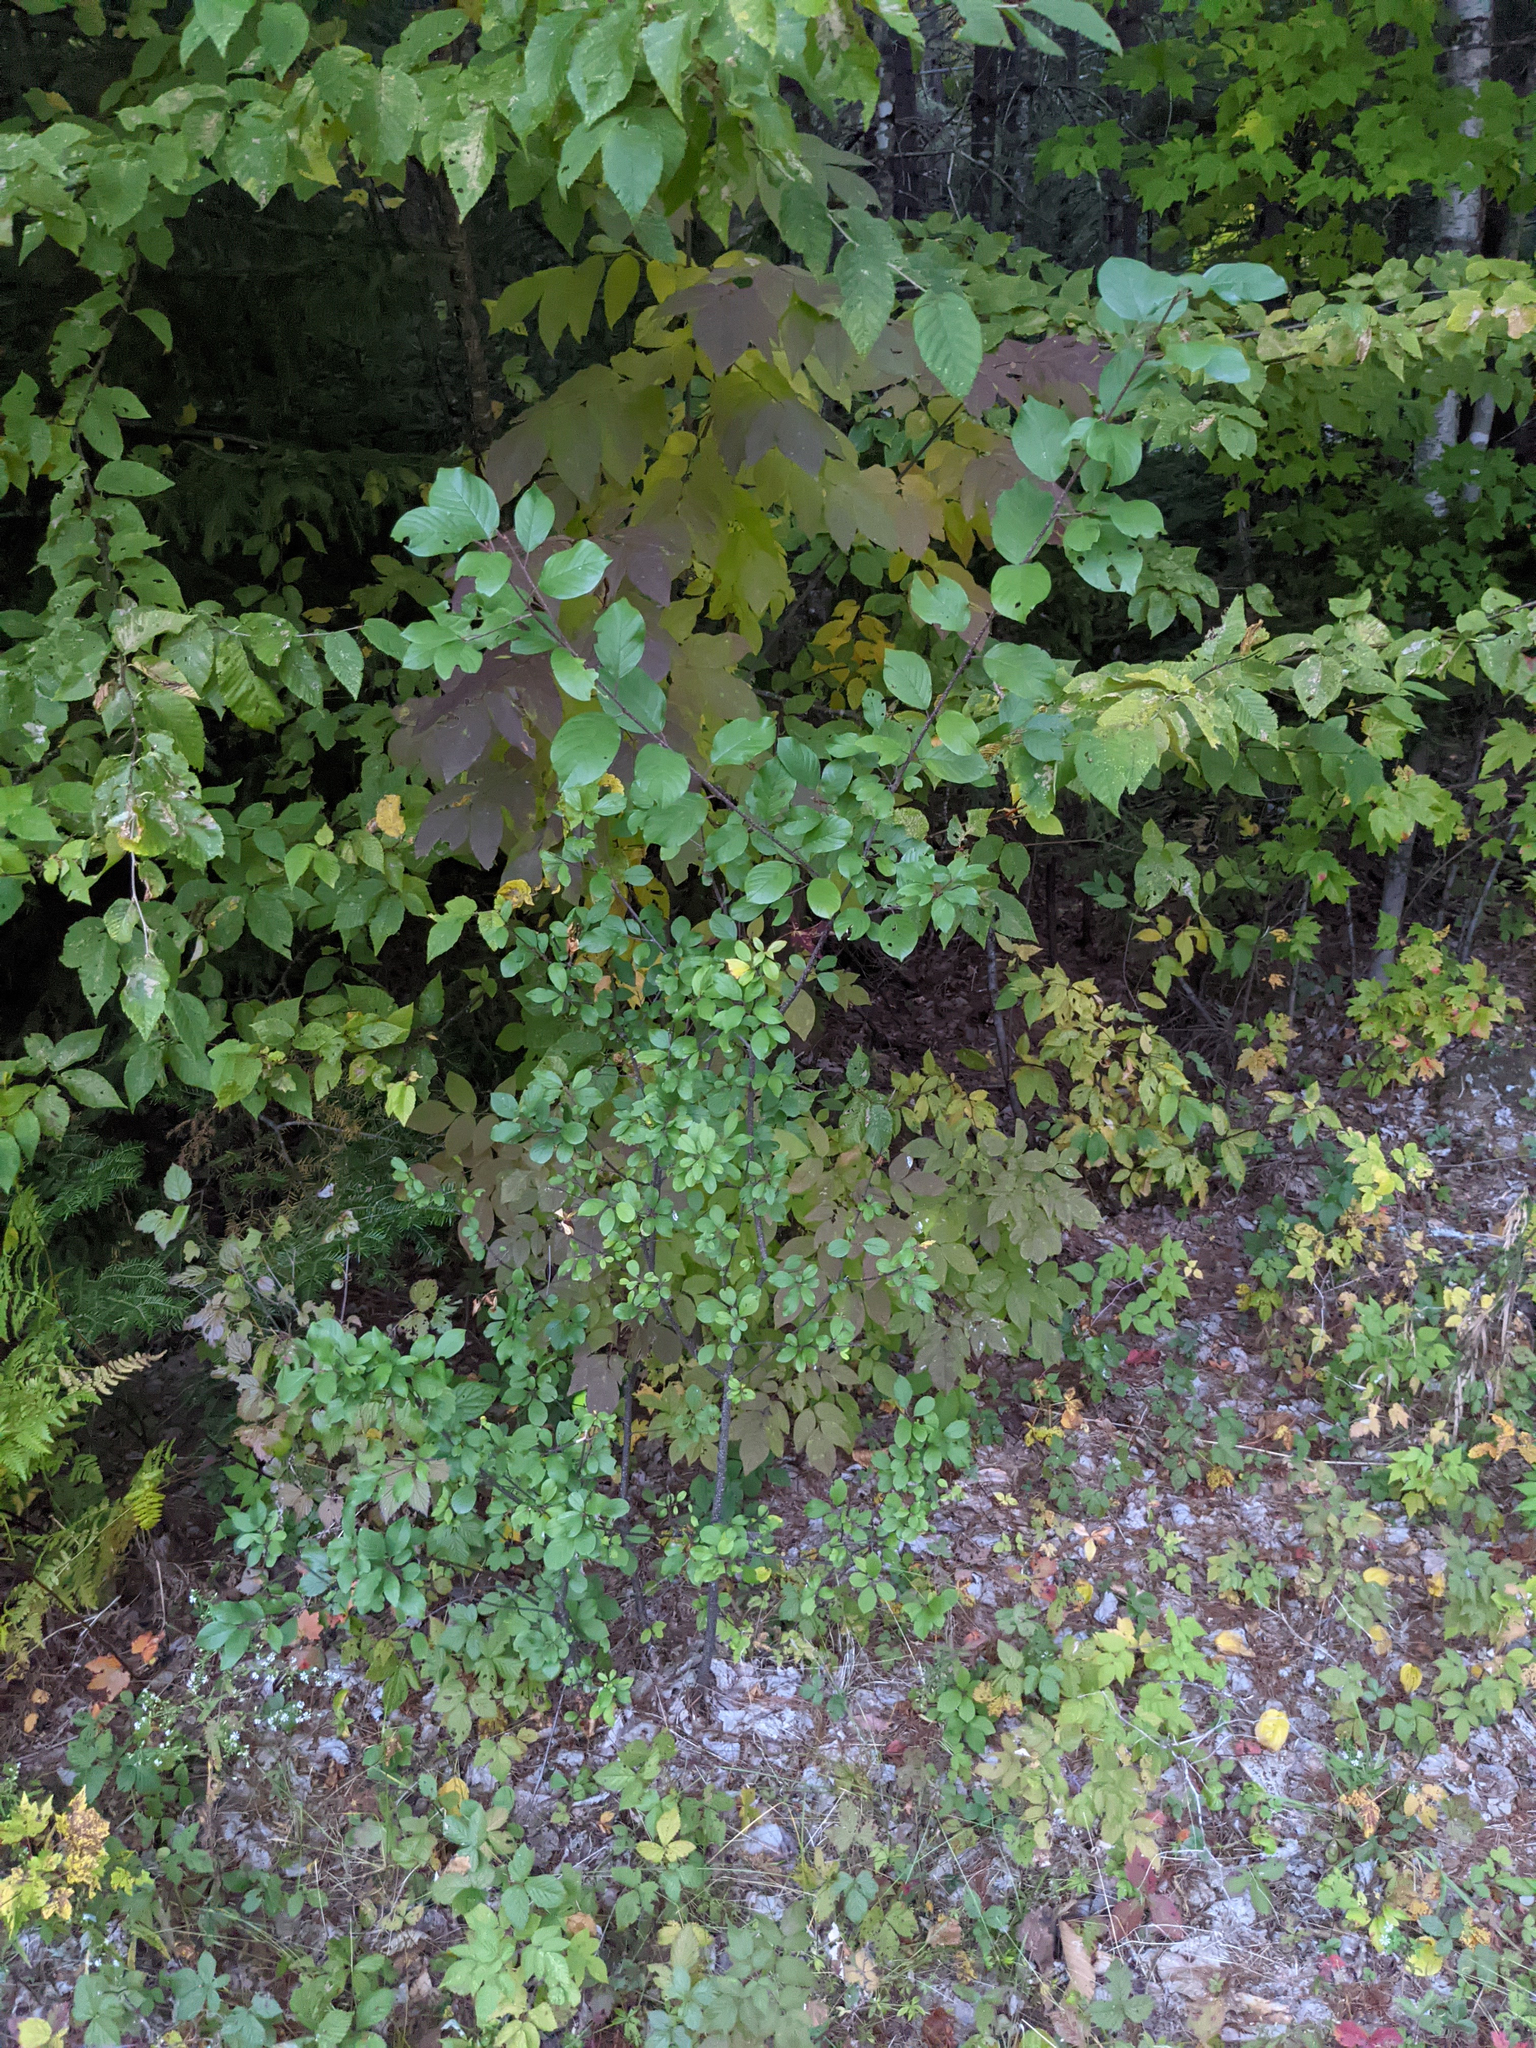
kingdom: Plantae
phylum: Tracheophyta
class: Magnoliopsida
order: Rosales
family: Rhamnaceae
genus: Frangula
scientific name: Frangula alnus
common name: Alder buckthorn
